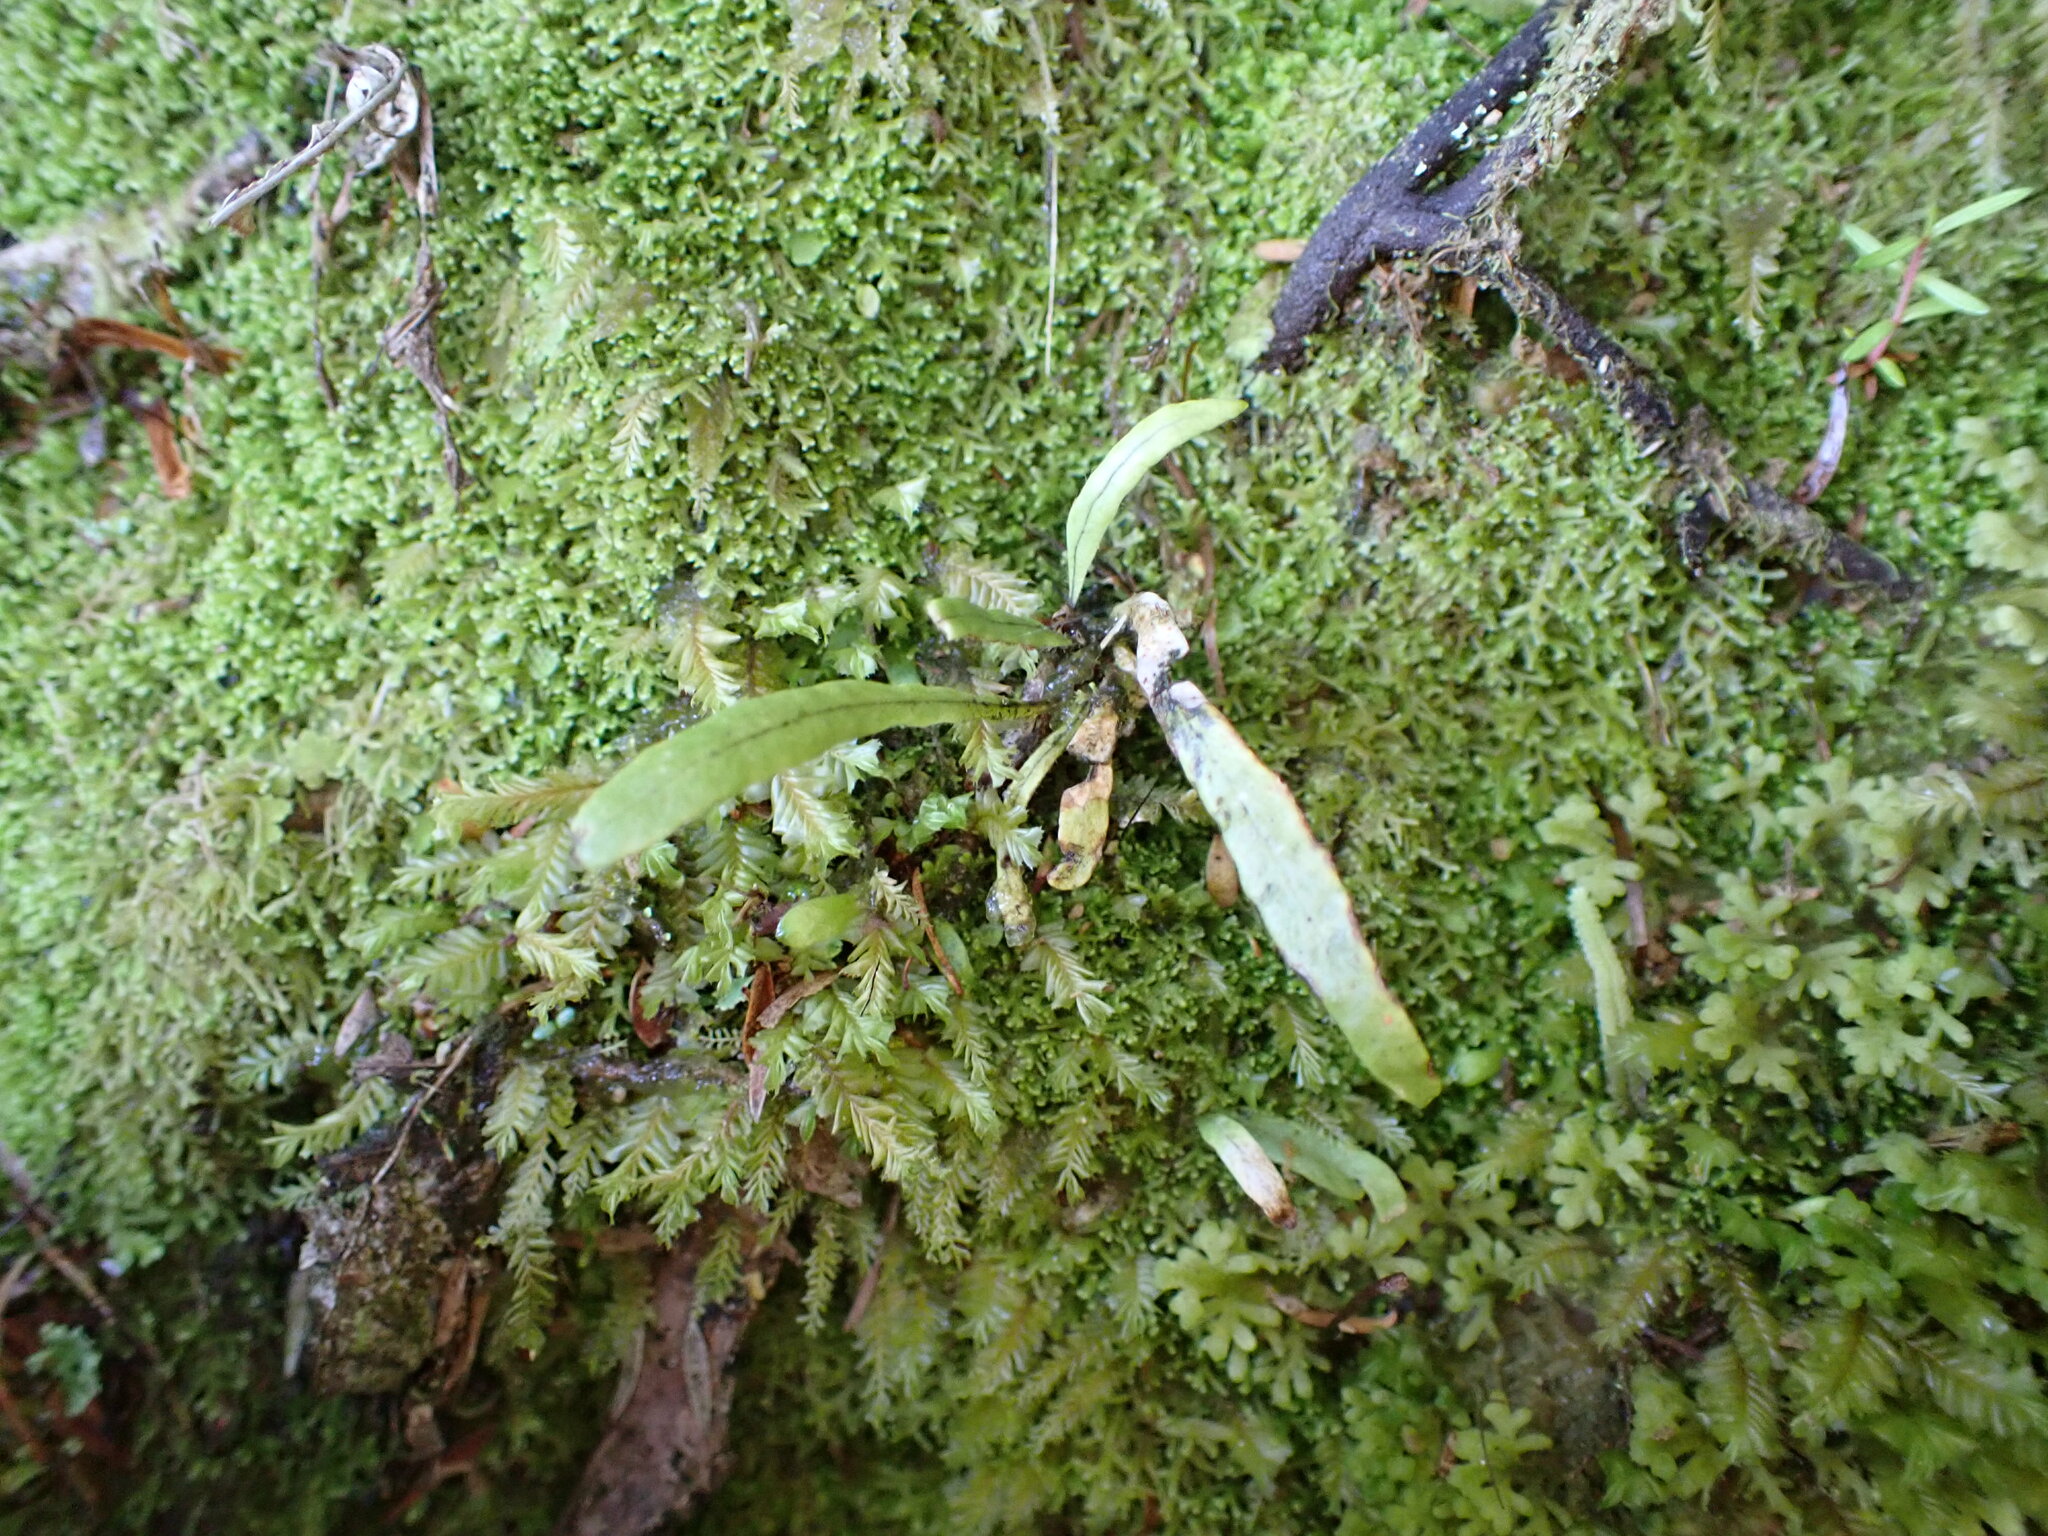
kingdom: Plantae
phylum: Tracheophyta
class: Polypodiopsida
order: Polypodiales
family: Polypodiaceae
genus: Notogrammitis
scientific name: Notogrammitis ciliata
